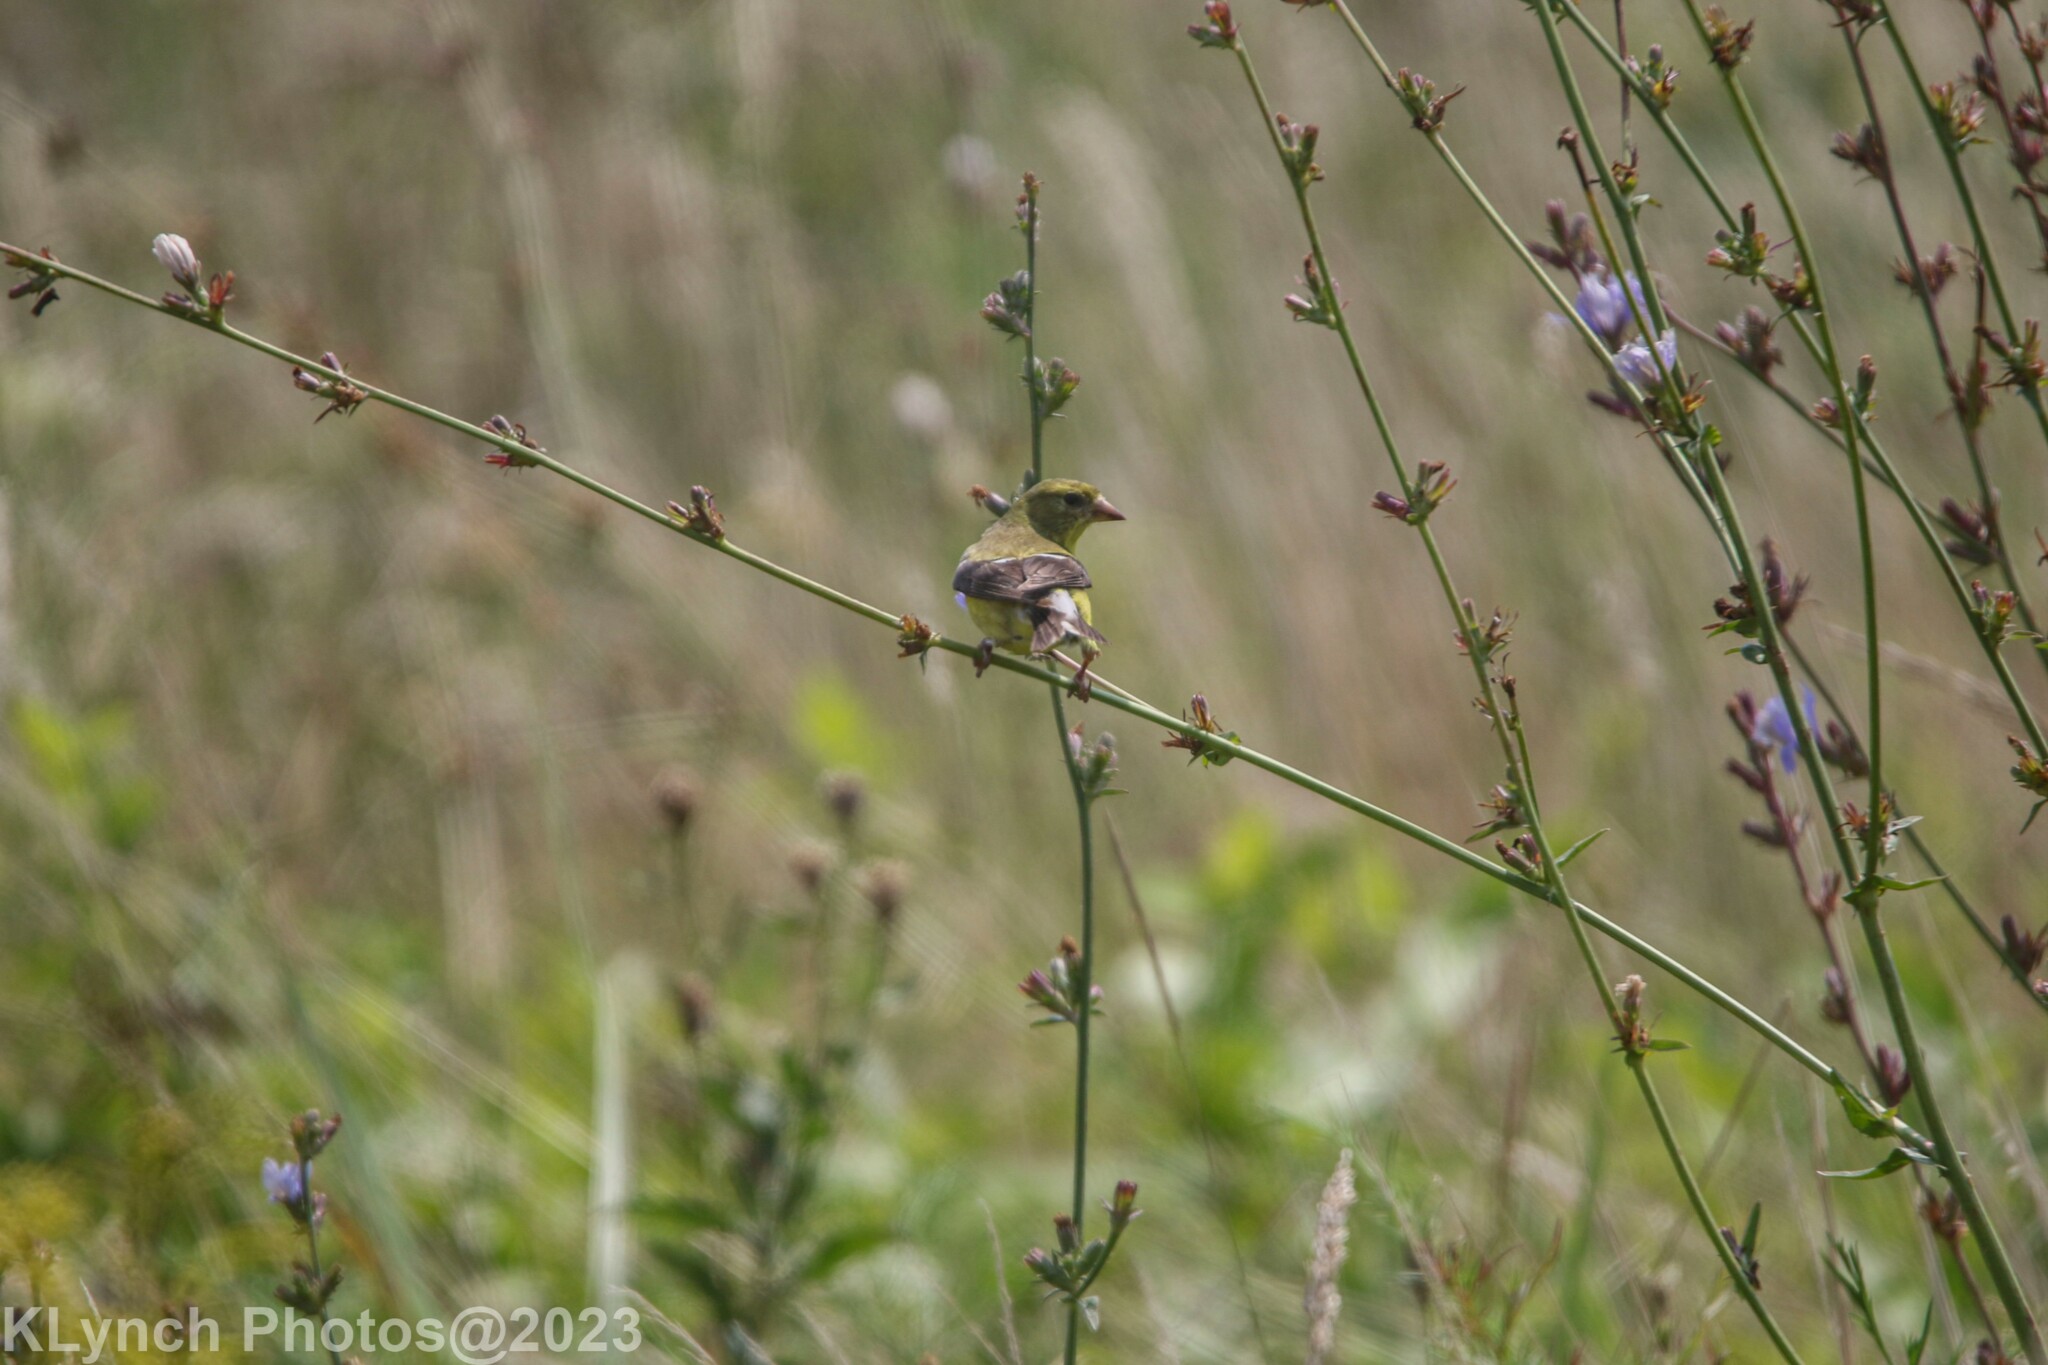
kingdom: Animalia
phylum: Chordata
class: Aves
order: Passeriformes
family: Fringillidae
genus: Spinus
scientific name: Spinus tristis
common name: American goldfinch
